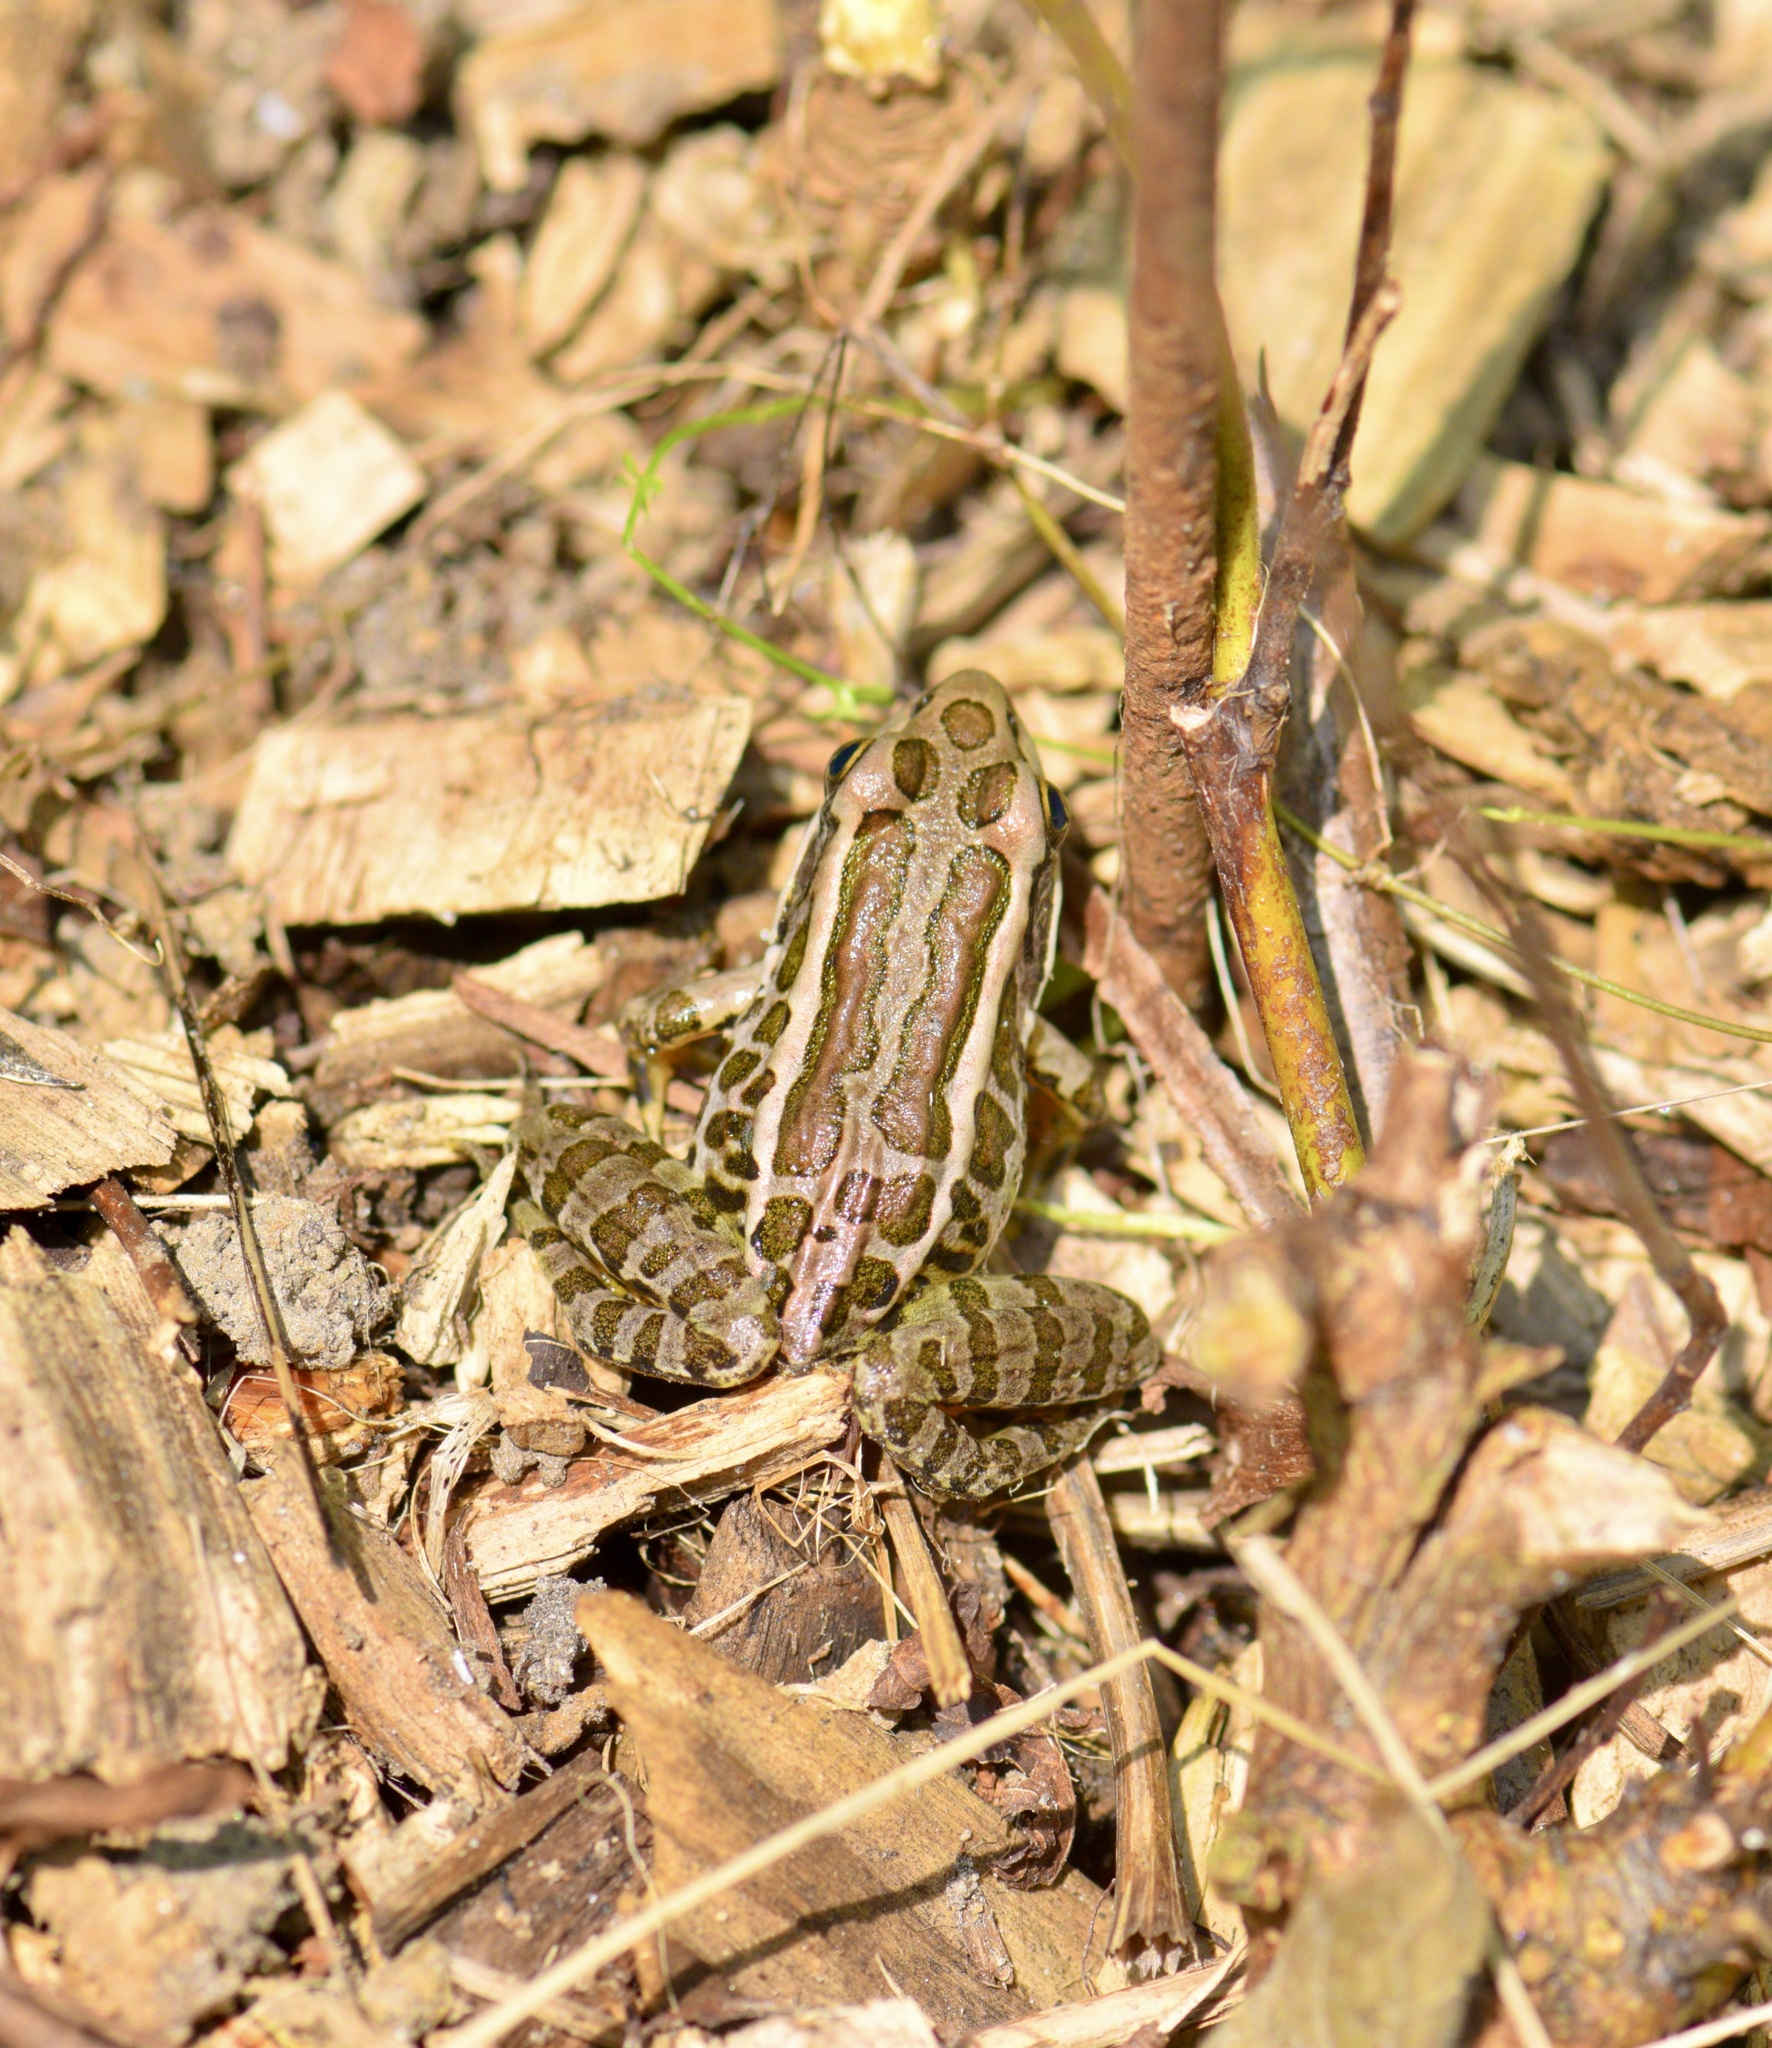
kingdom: Animalia
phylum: Chordata
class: Amphibia
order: Anura
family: Ranidae
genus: Lithobates
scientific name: Lithobates palustris
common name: Pickerel frog
